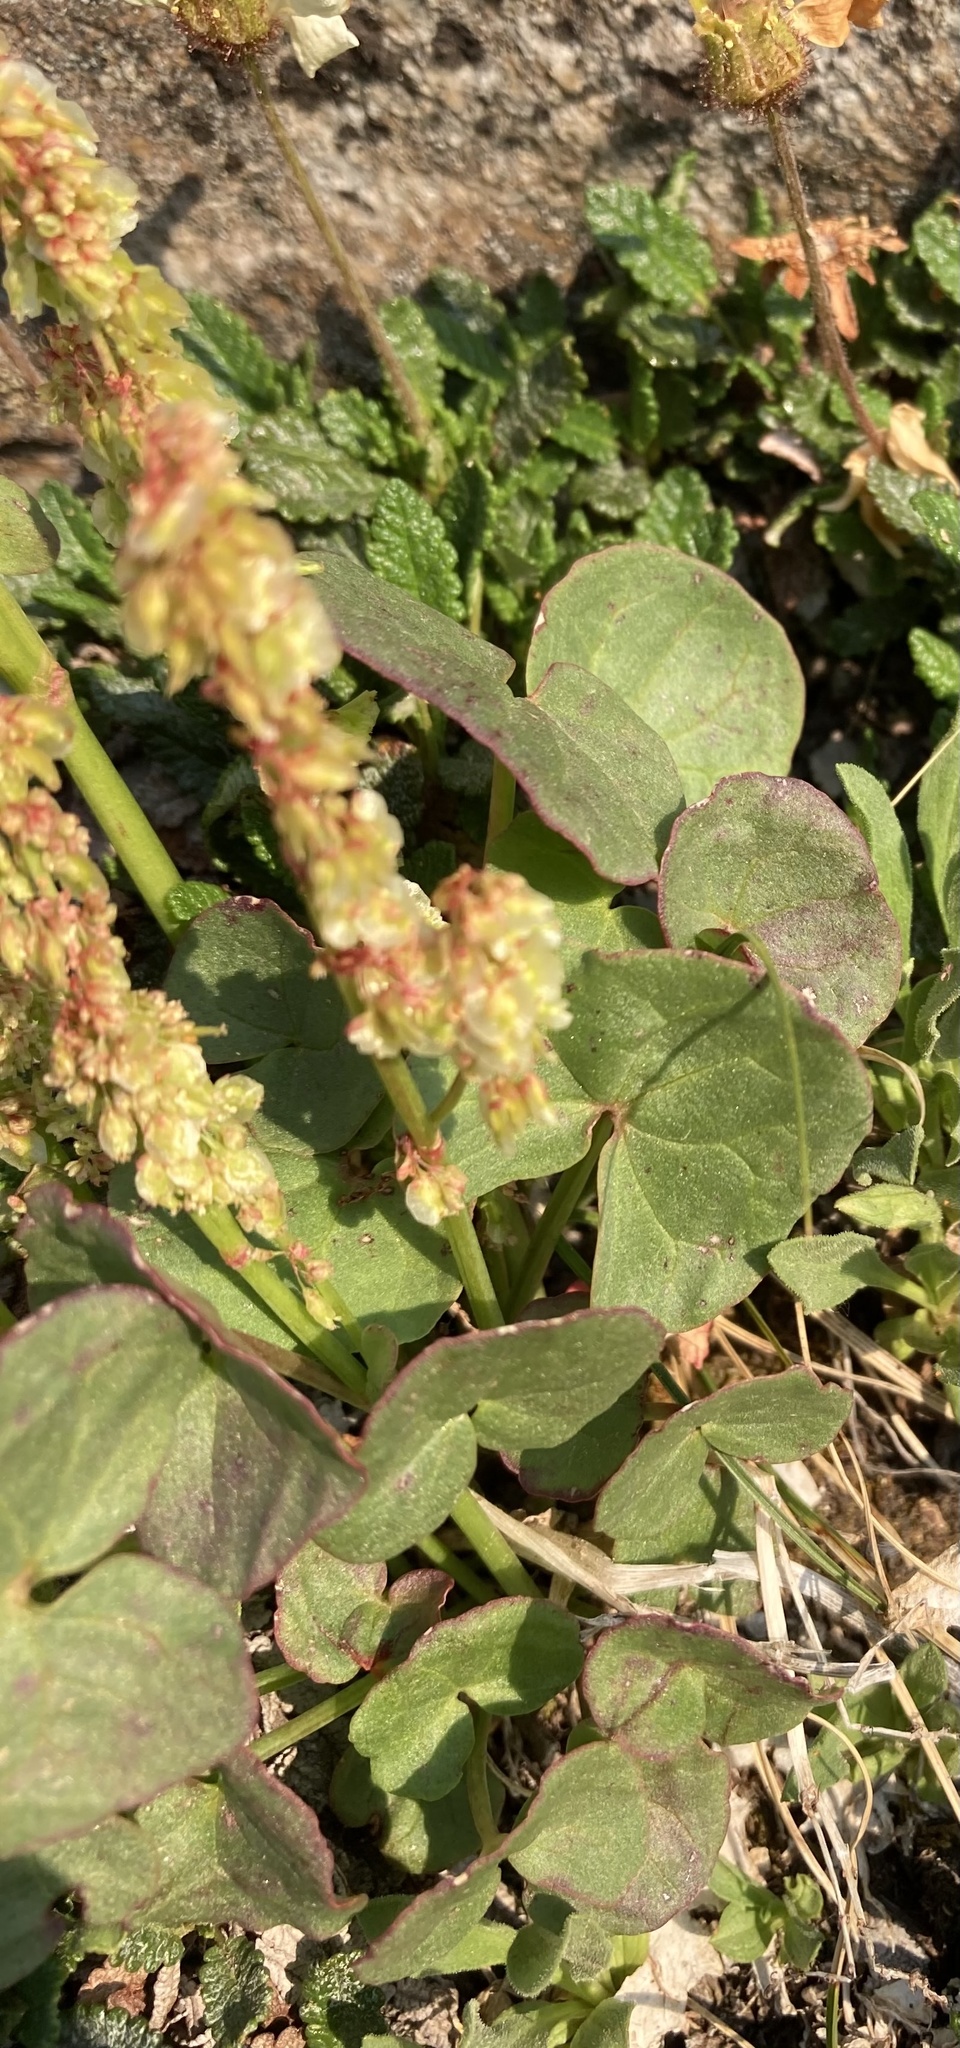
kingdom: Plantae
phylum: Tracheophyta
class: Magnoliopsida
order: Caryophyllales
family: Polygonaceae
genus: Oxyria
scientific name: Oxyria digyna
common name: Alpine mountain-sorrel
